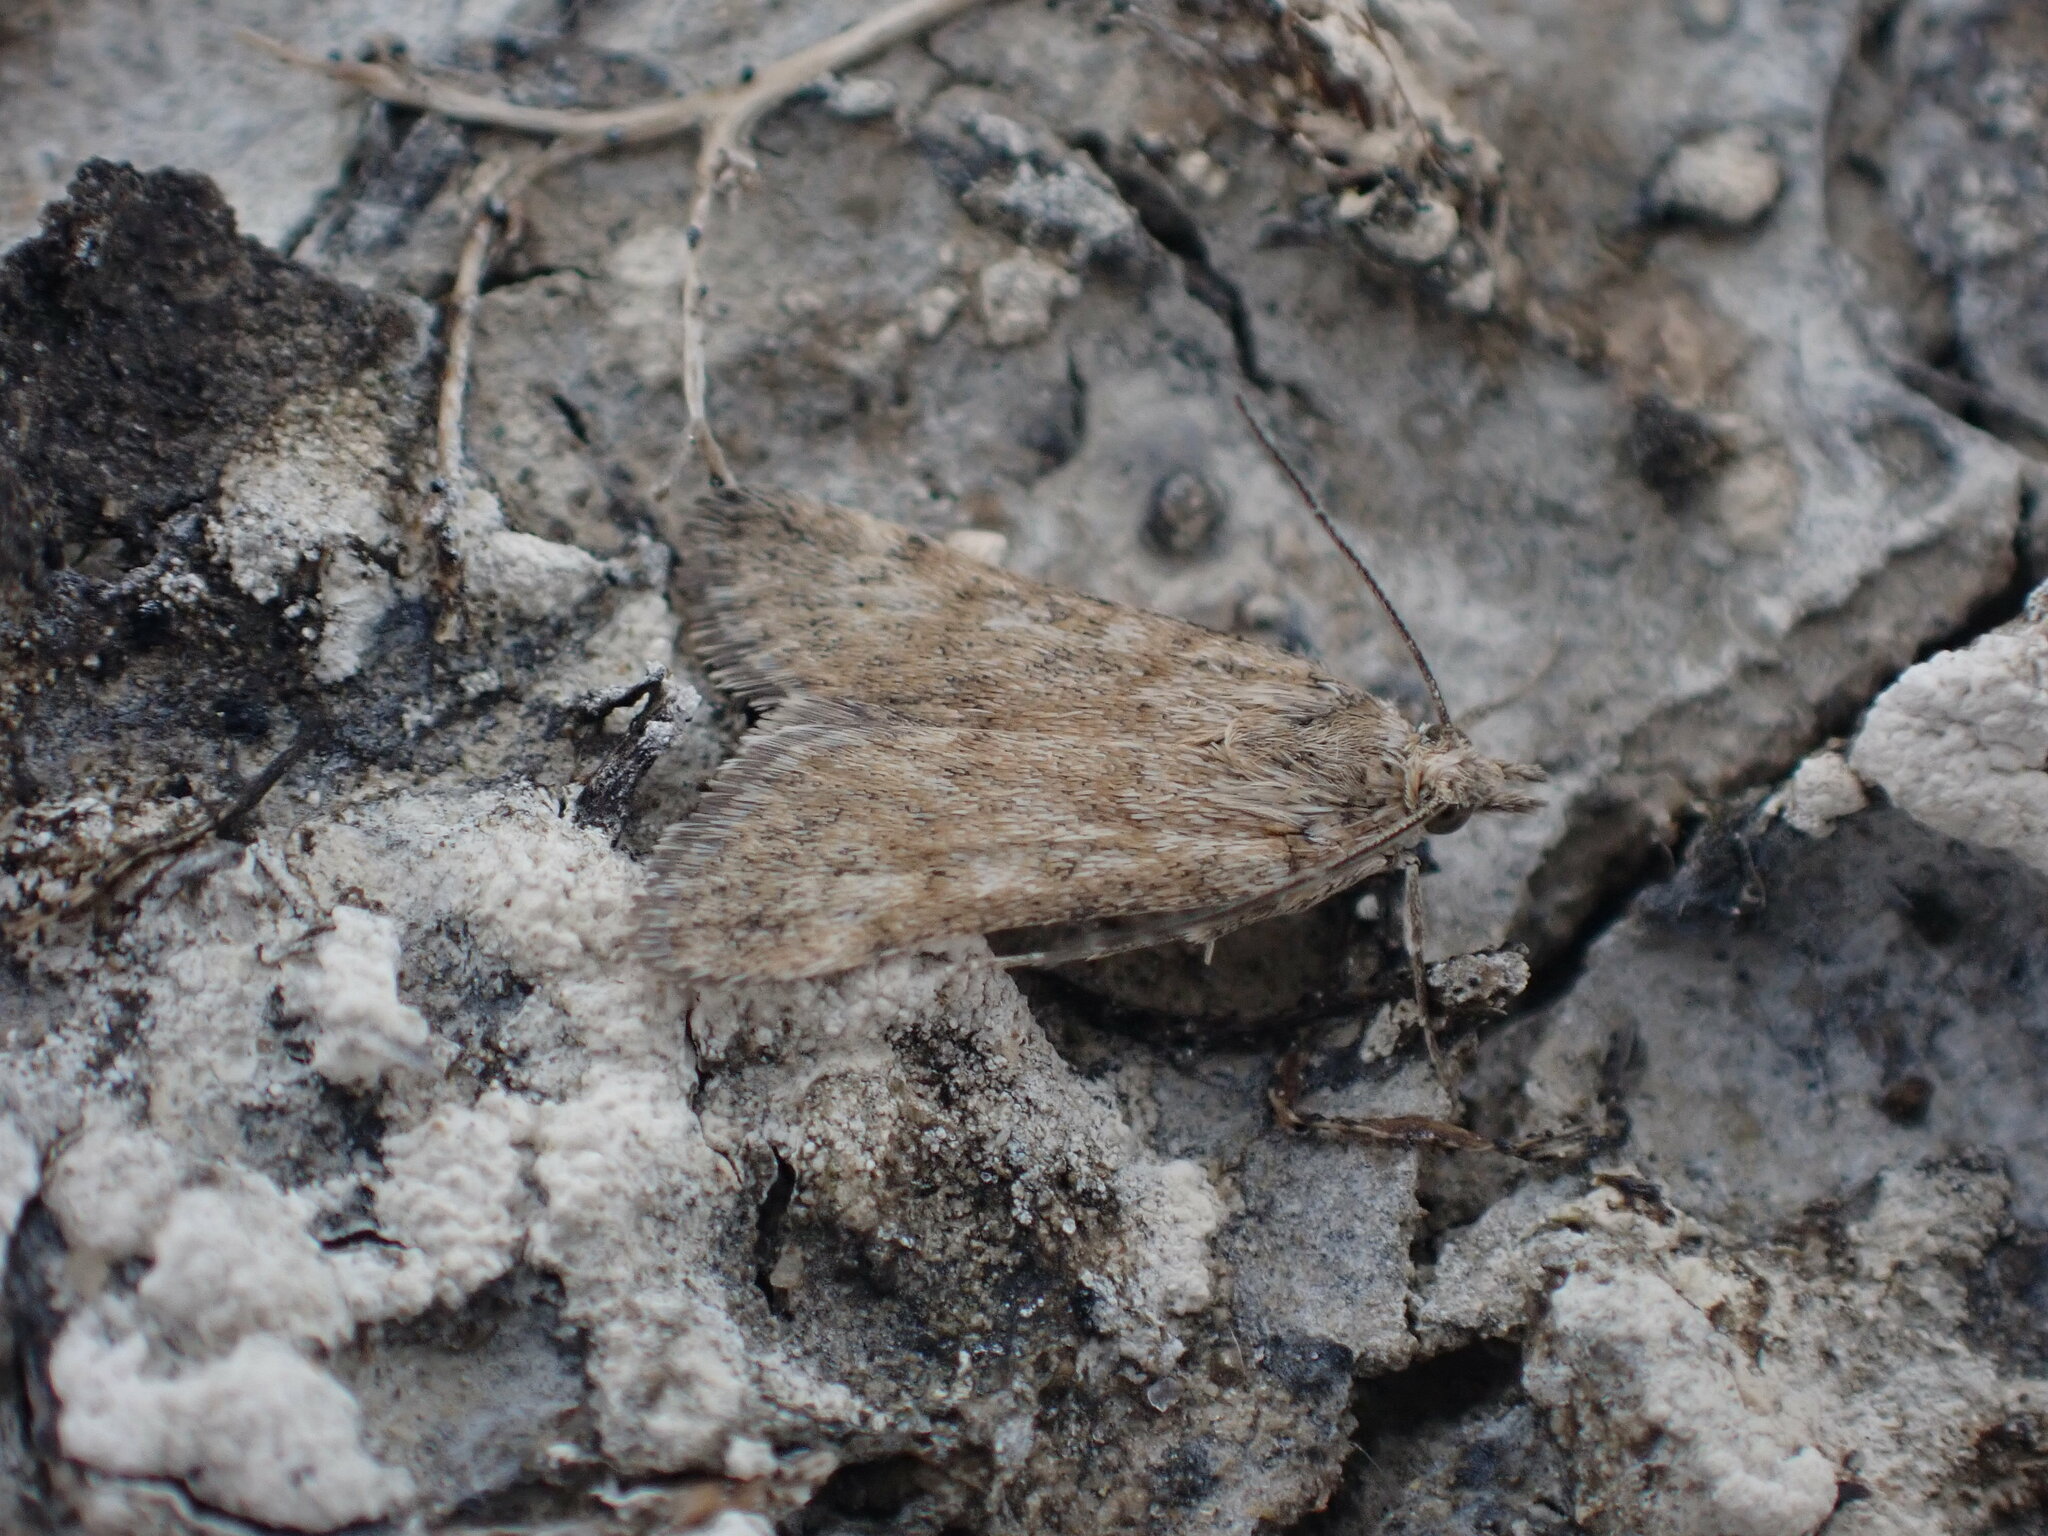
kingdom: Animalia
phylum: Arthropoda
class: Insecta
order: Lepidoptera
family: Crambidae
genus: Achyra
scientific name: Achyra affinitalis
